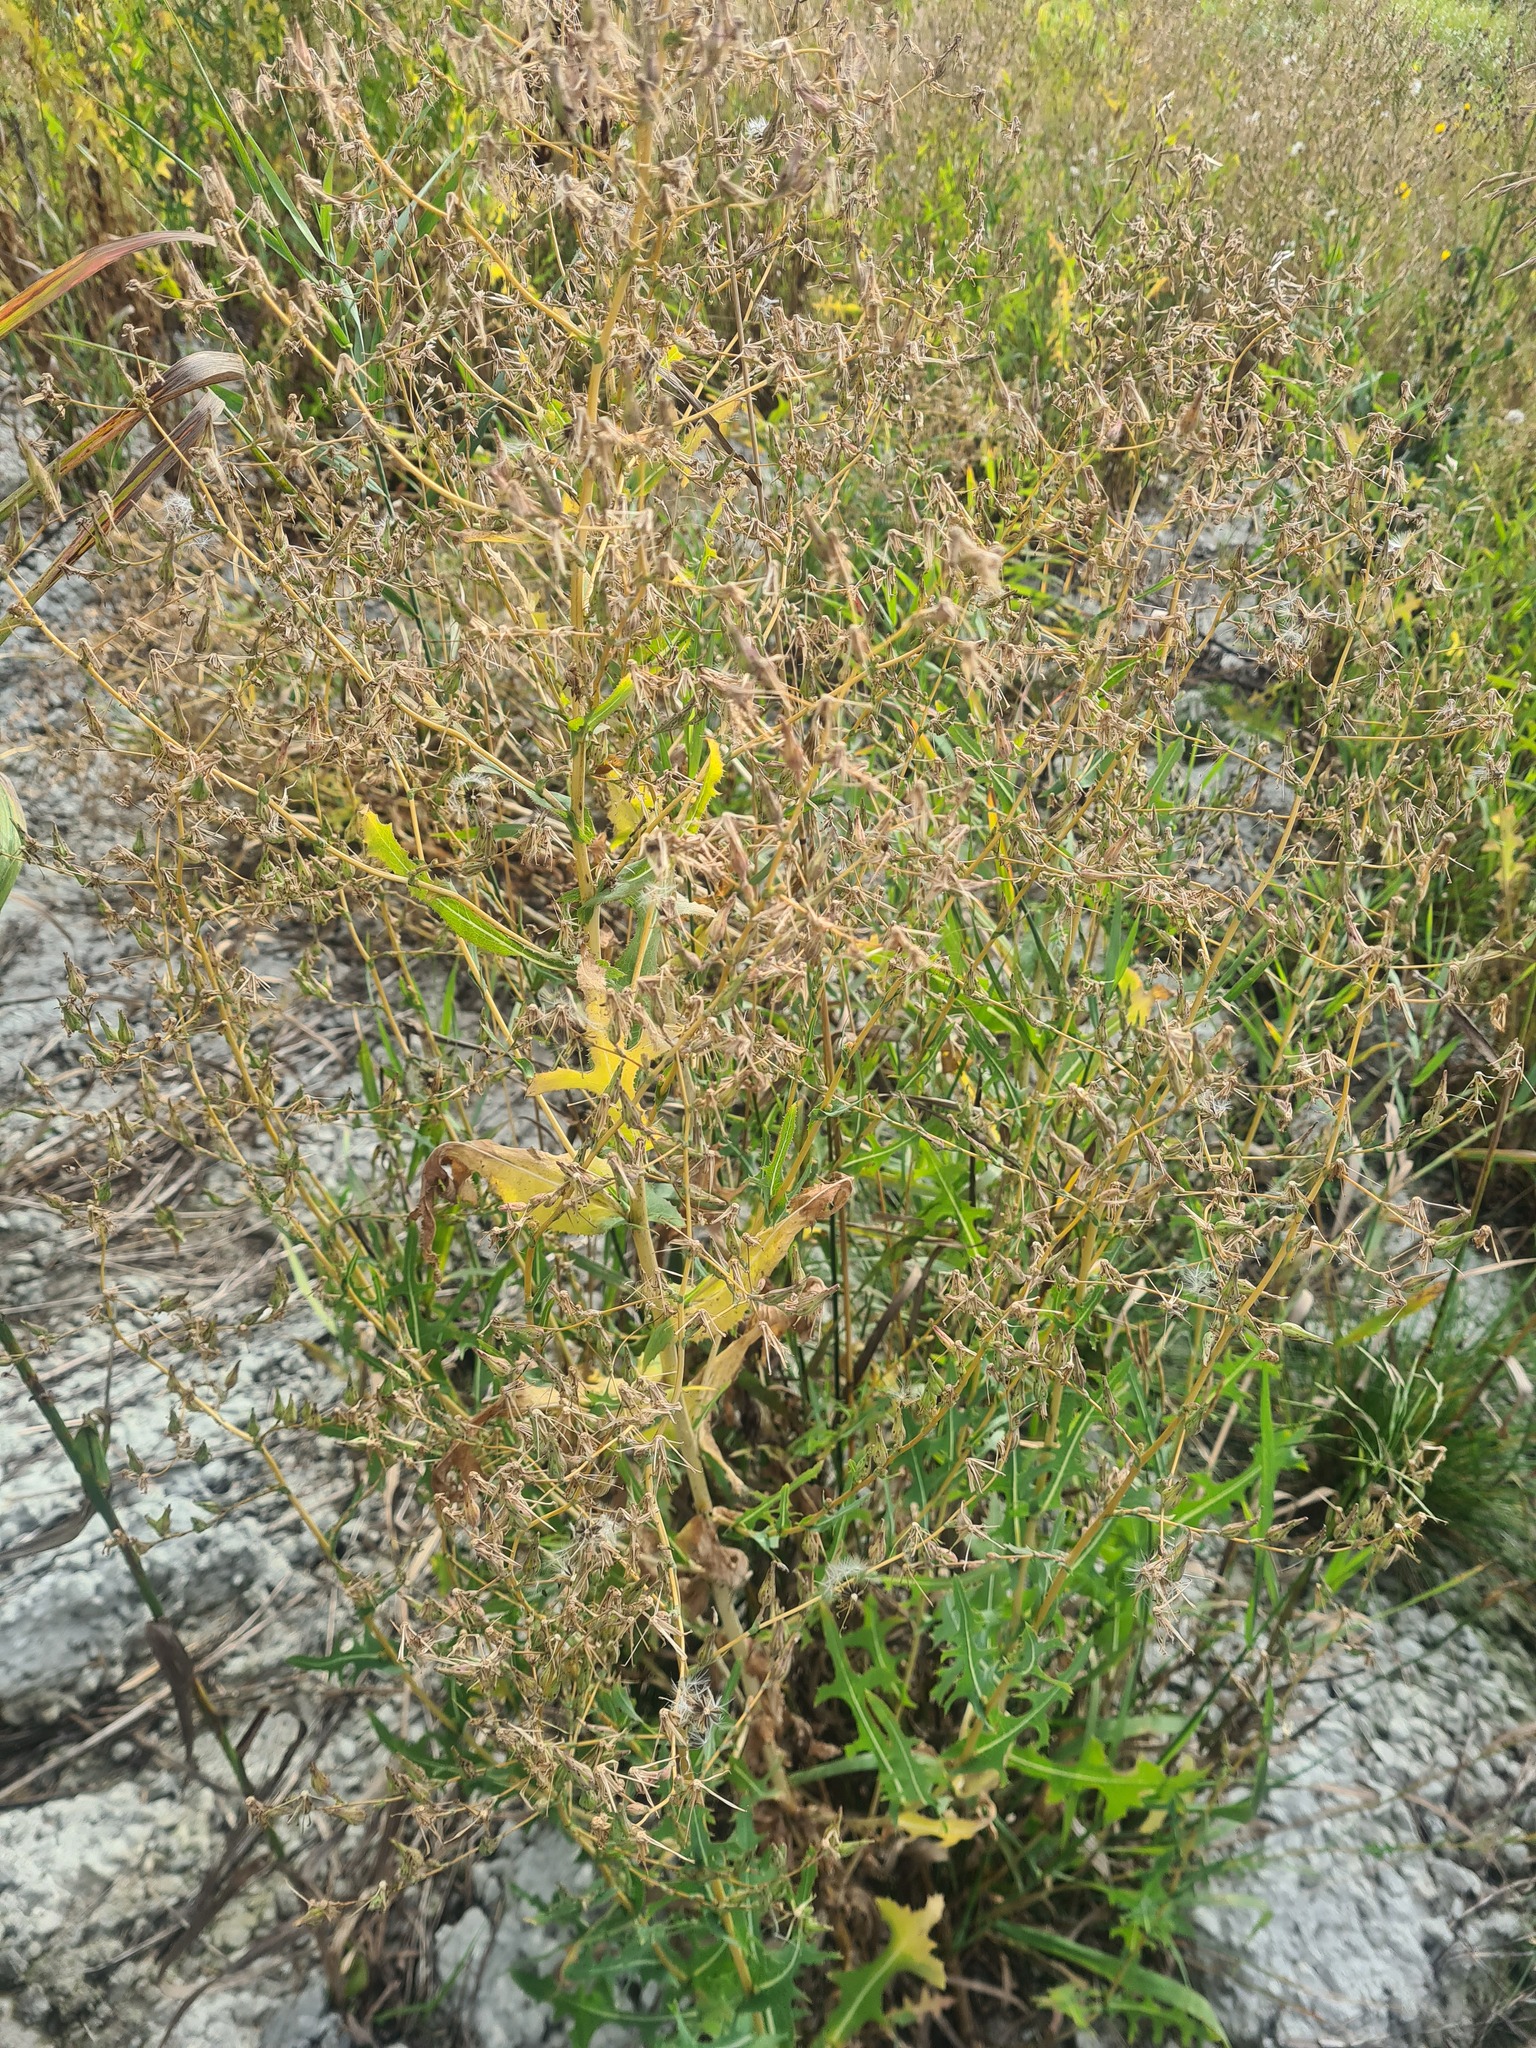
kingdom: Plantae
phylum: Tracheophyta
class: Magnoliopsida
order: Asterales
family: Asteraceae
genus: Lactuca
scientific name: Lactuca serriola
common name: Prickly lettuce
